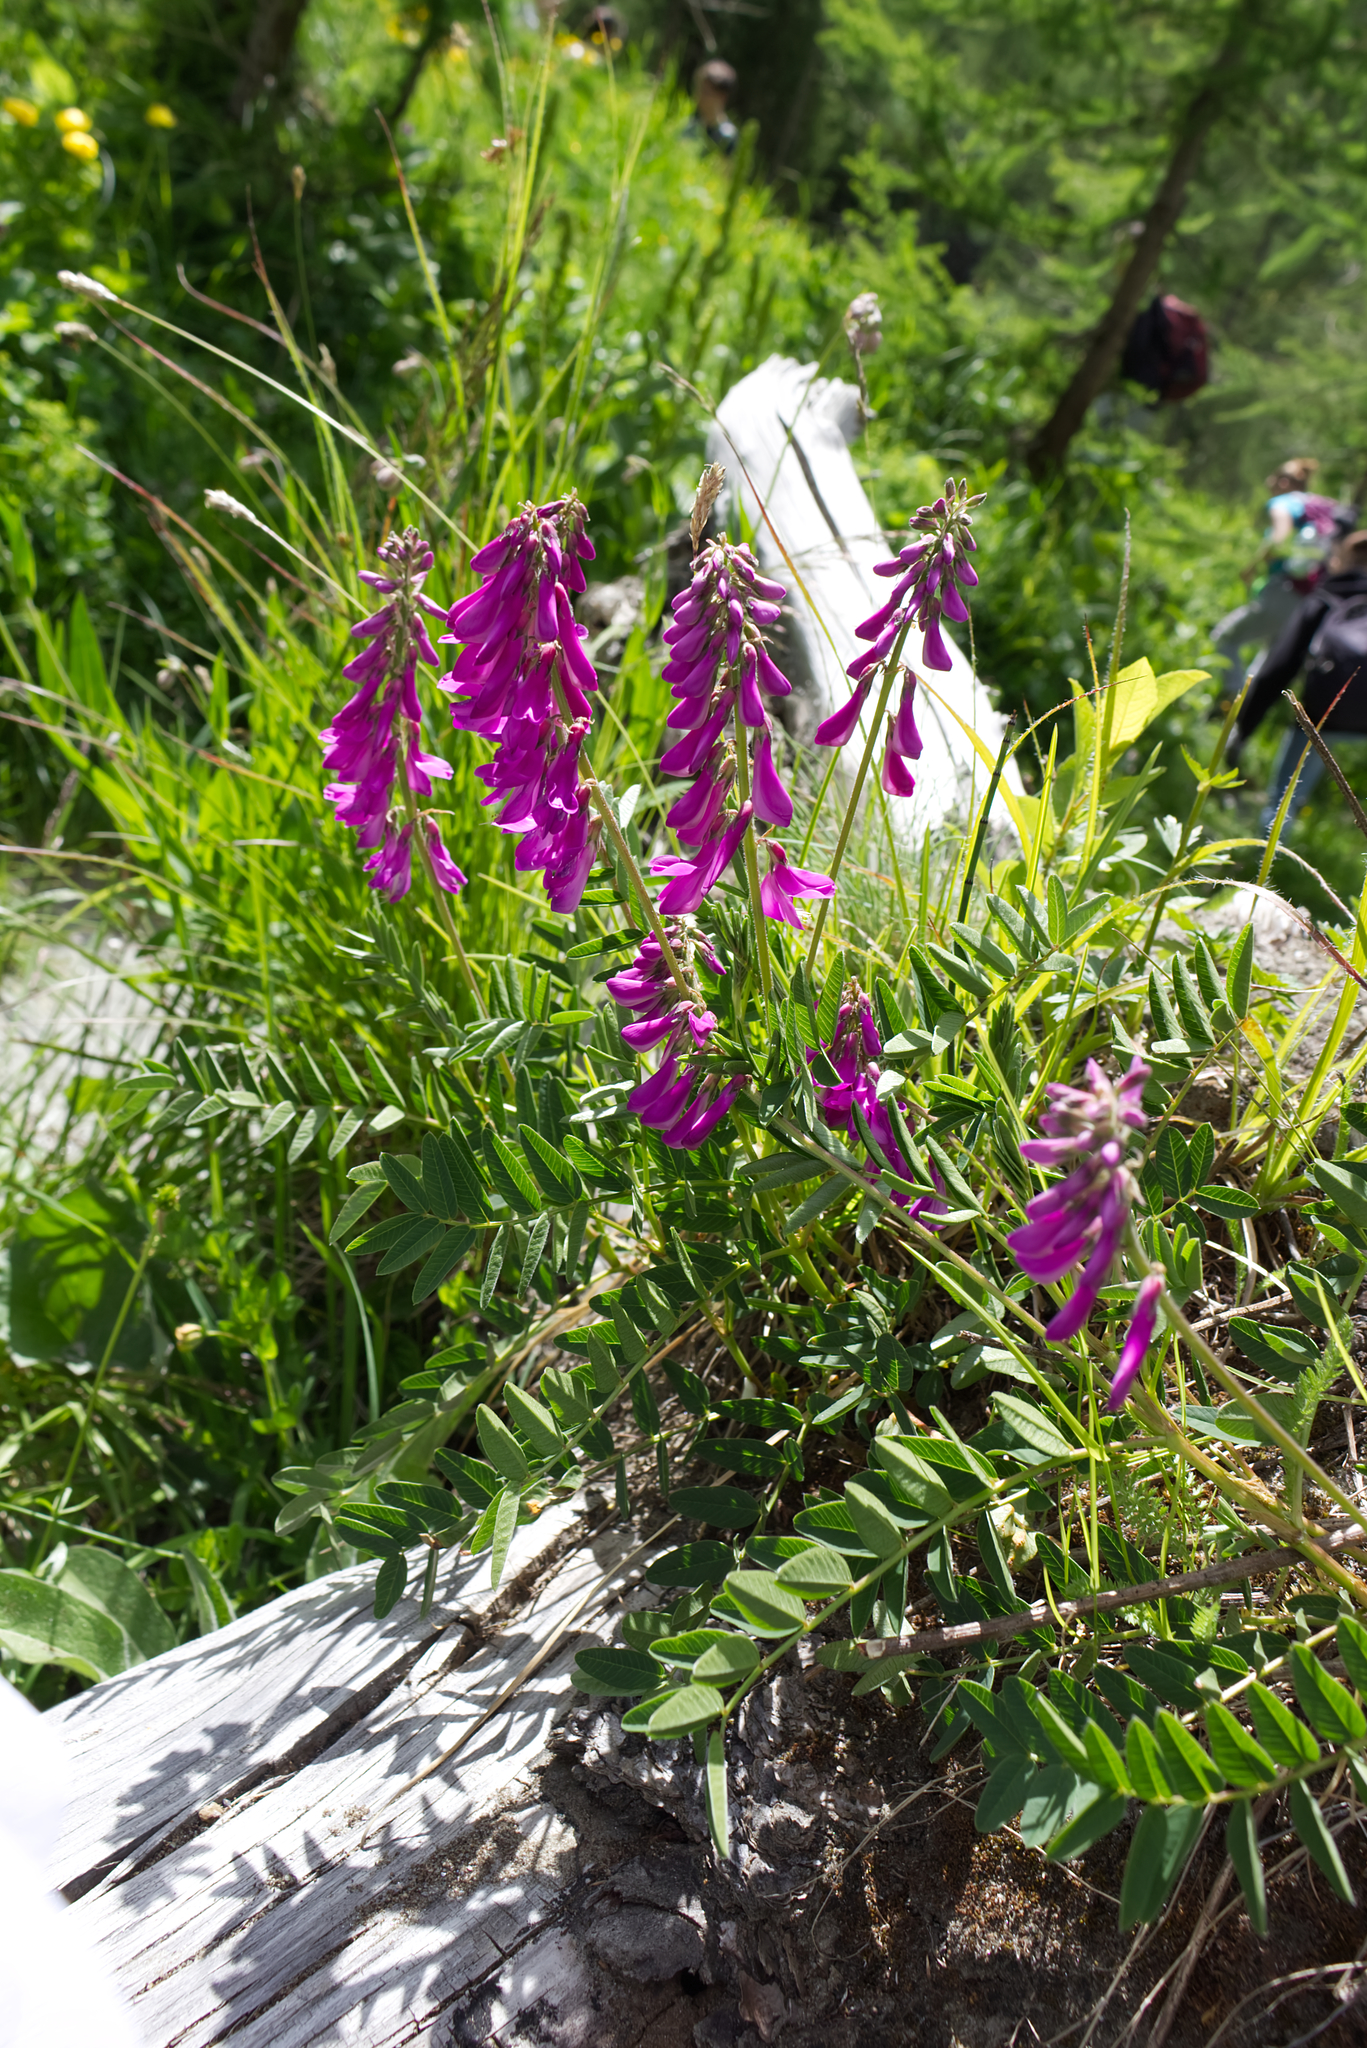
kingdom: Plantae
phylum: Tracheophyta
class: Magnoliopsida
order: Fabales
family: Fabaceae
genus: Hedysarum
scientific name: Hedysarum hedysaroides
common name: Alpine french-honeysuckle
